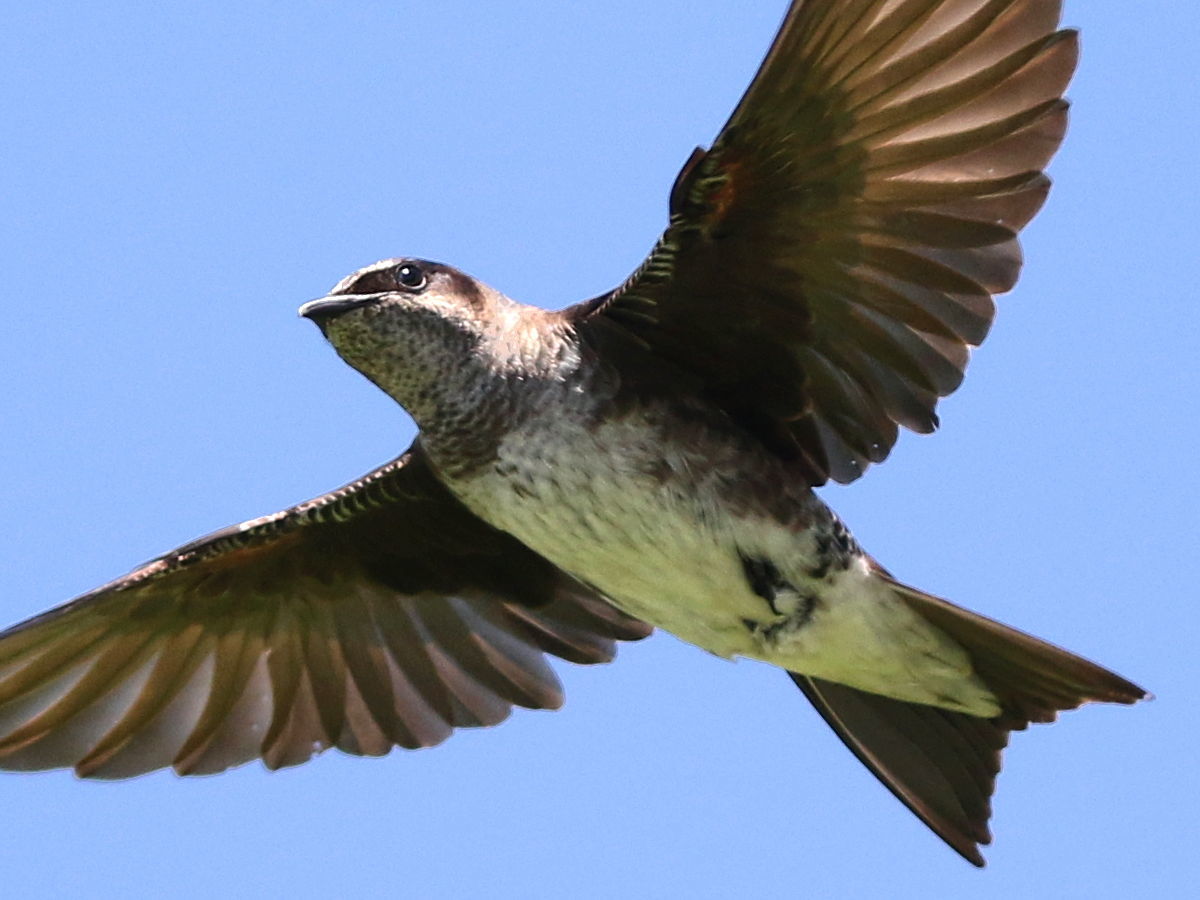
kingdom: Animalia
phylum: Chordata
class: Aves
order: Passeriformes
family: Hirundinidae
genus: Progne
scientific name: Progne subis
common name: Purple martin
